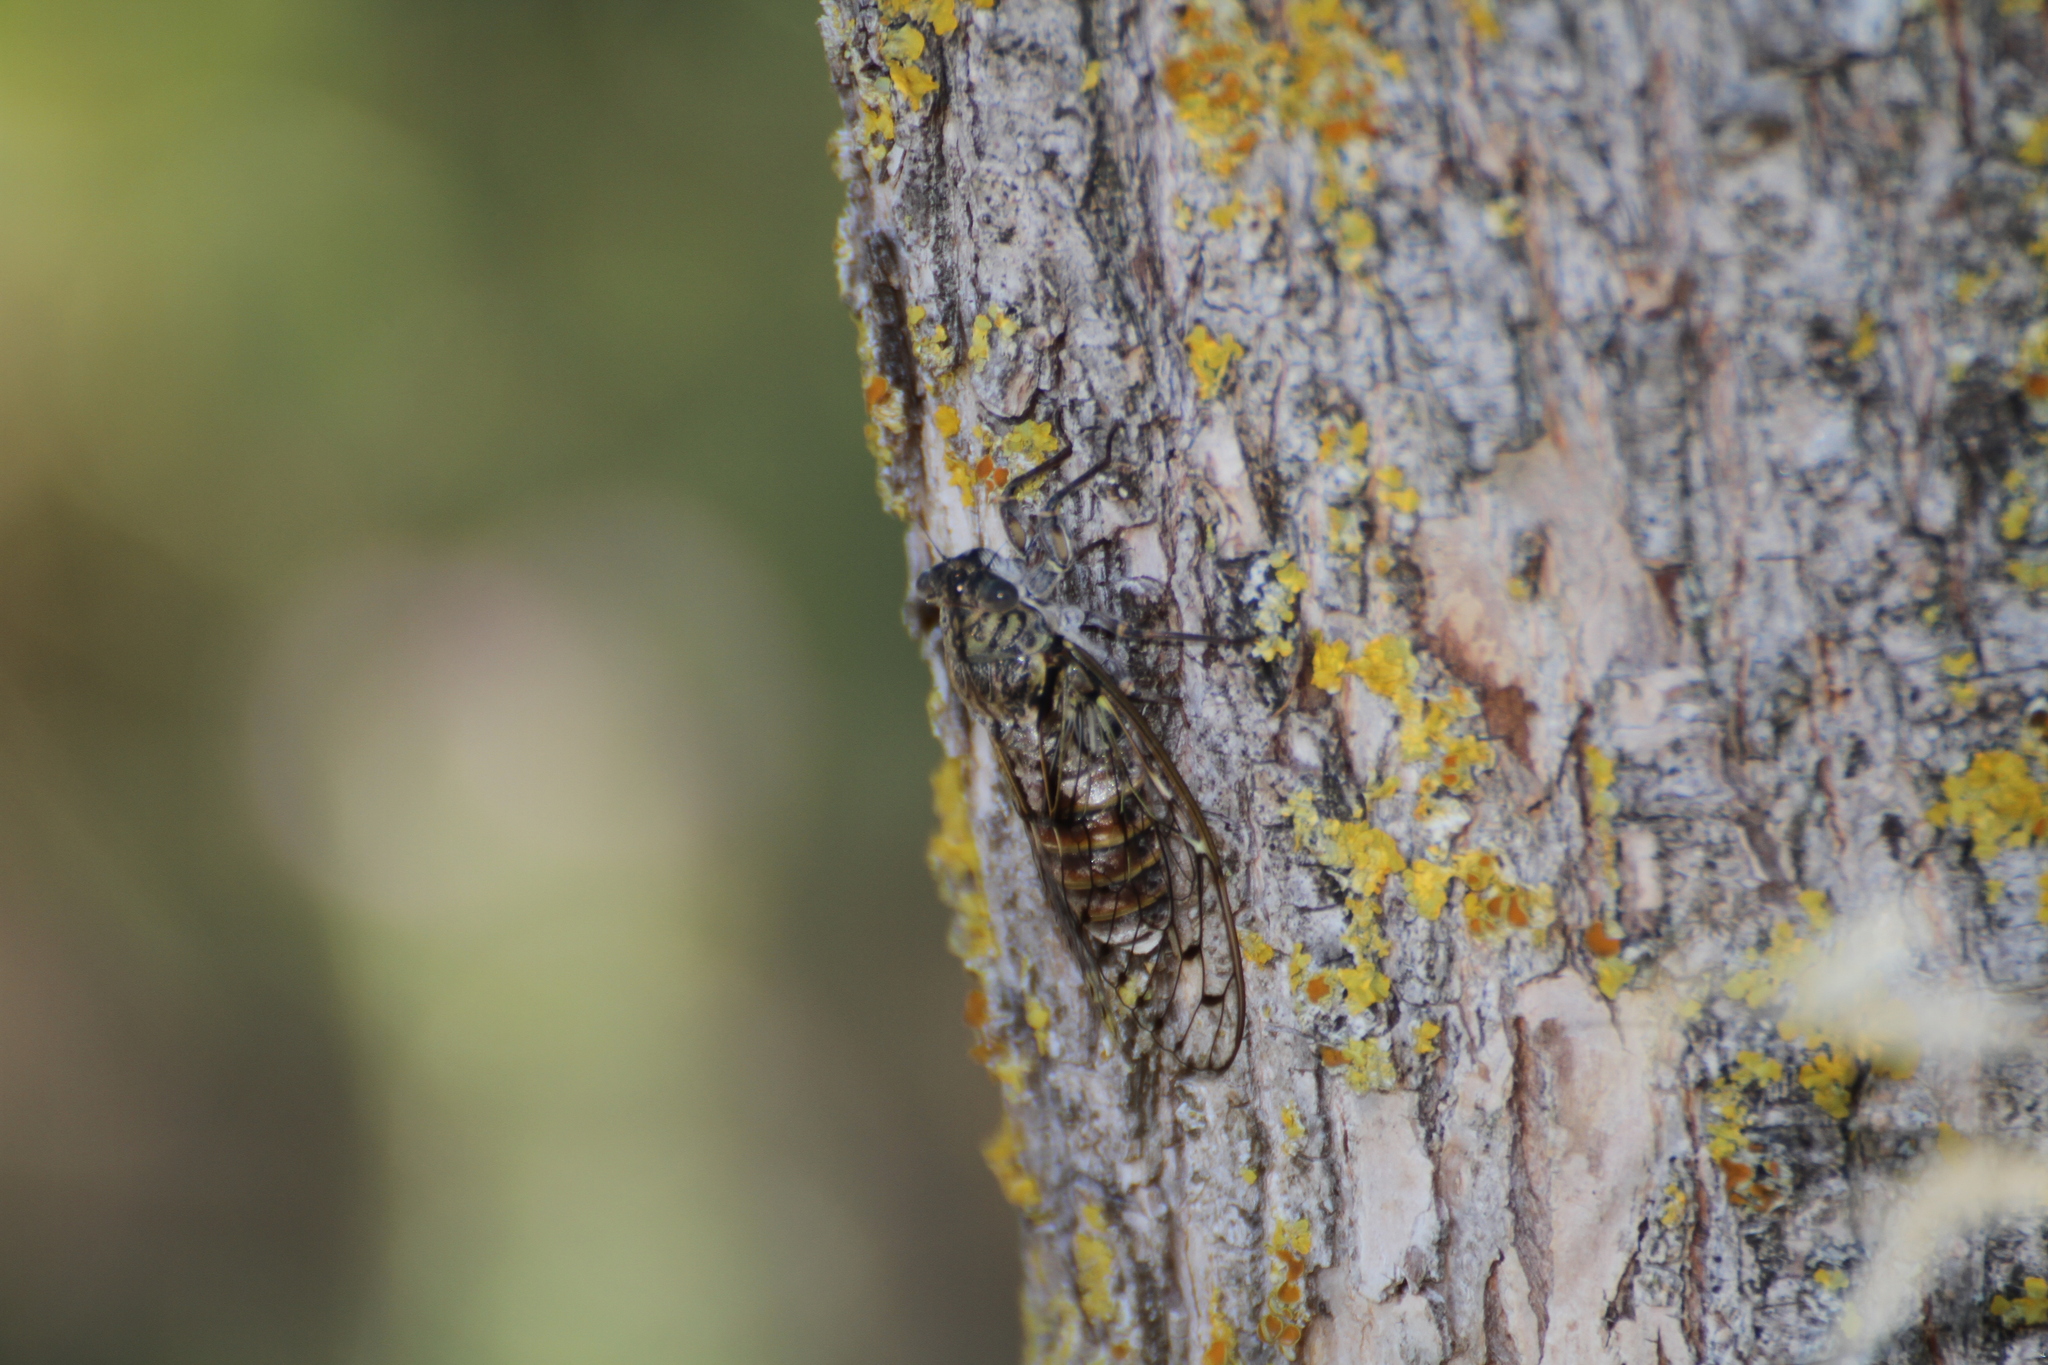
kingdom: Animalia
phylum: Arthropoda
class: Insecta
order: Hemiptera
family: Cicadidae
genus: Cicada
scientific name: Cicada orni
